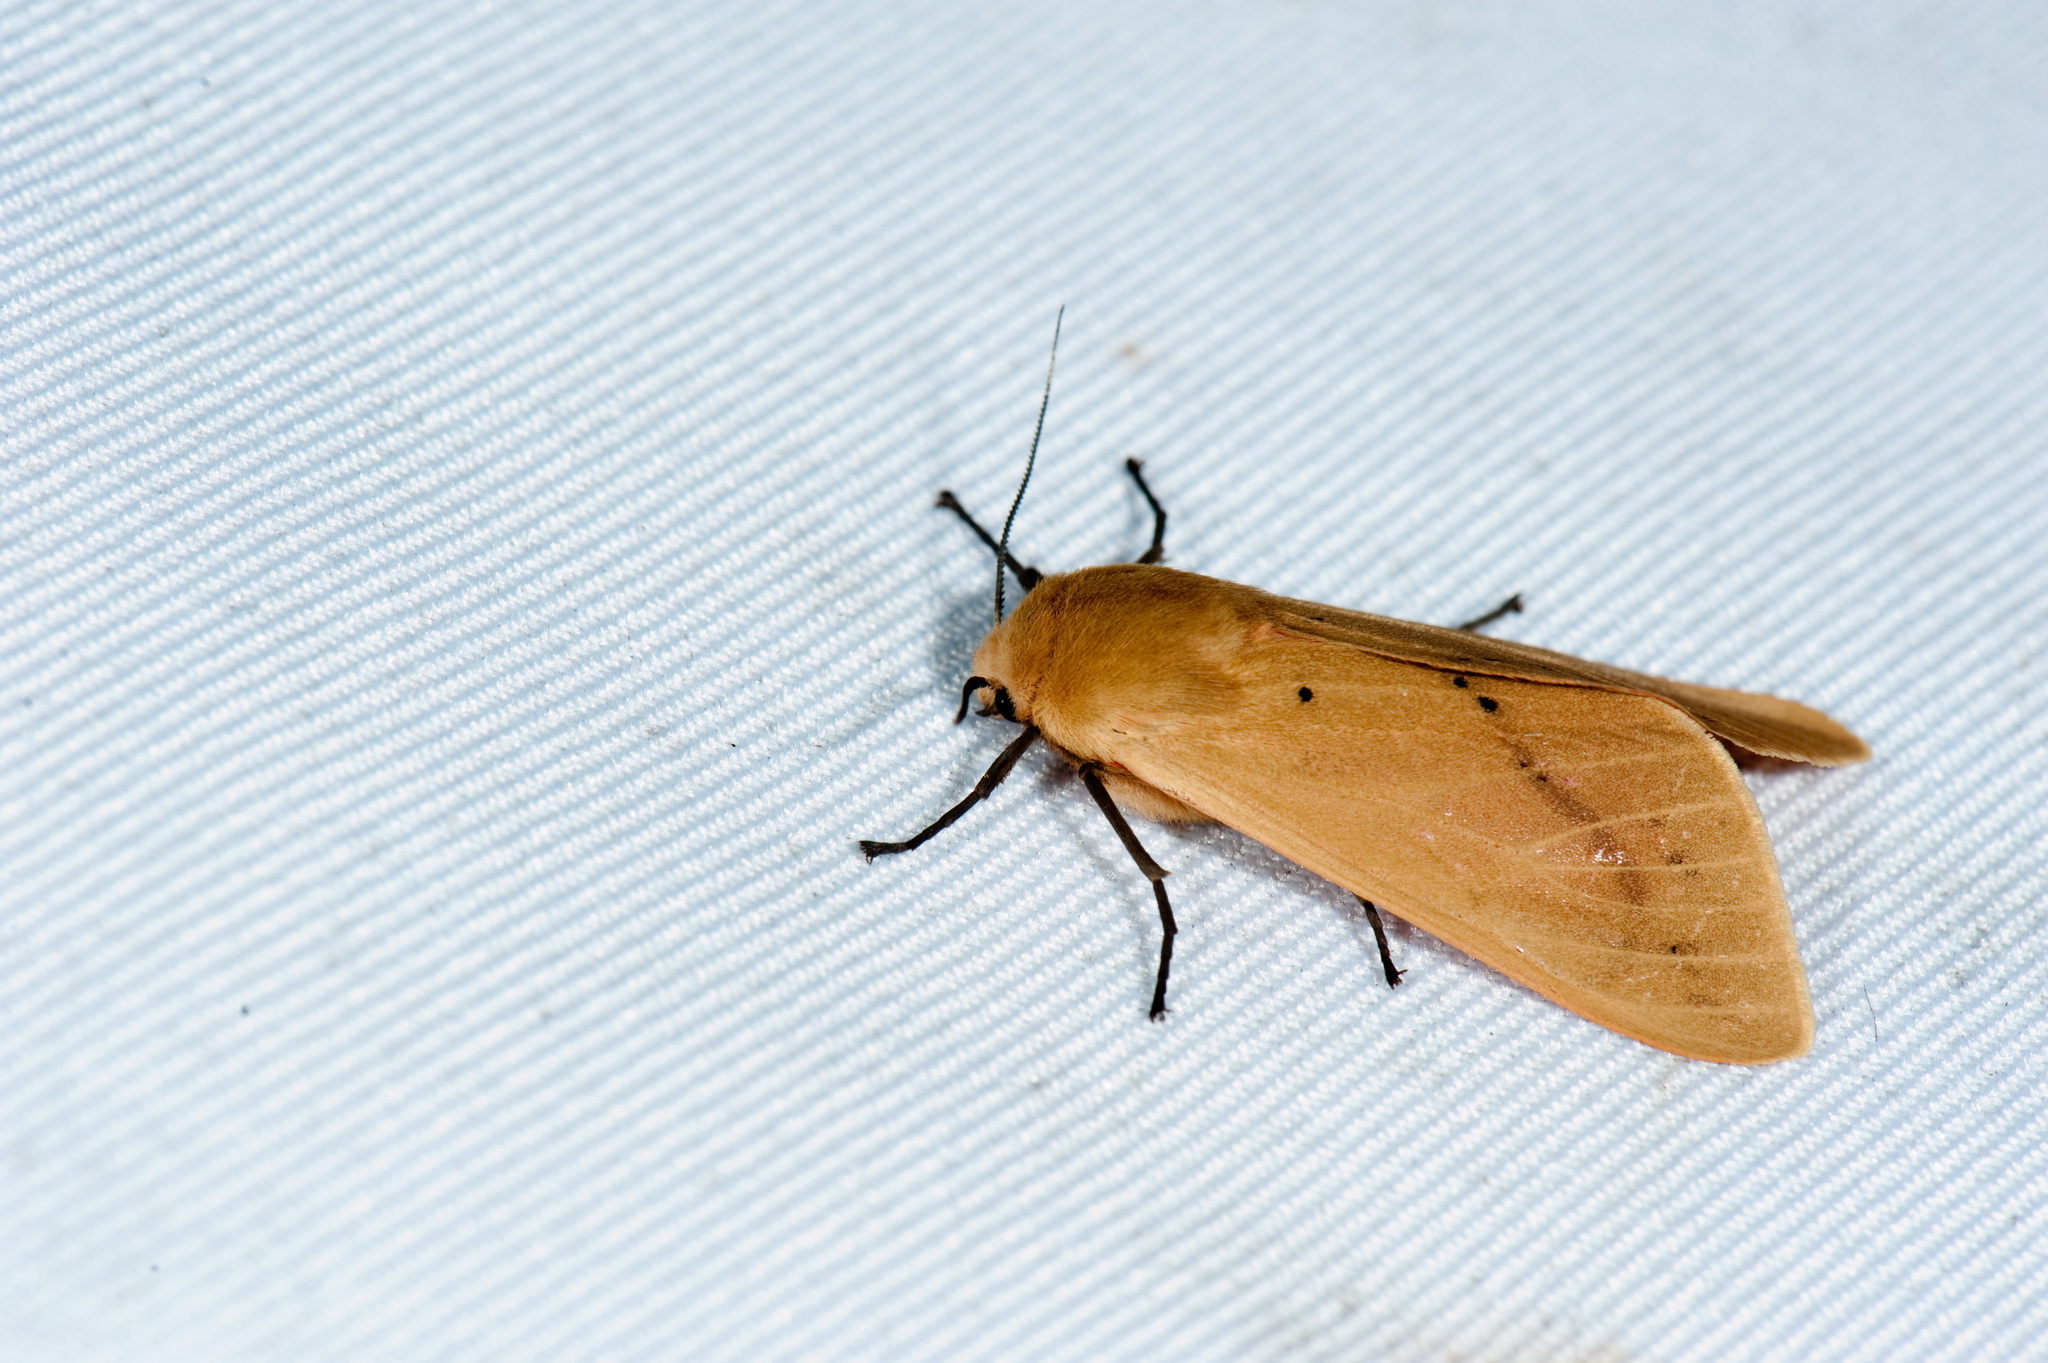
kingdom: Animalia
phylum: Arthropoda
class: Insecta
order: Lepidoptera
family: Erebidae
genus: Spilarctia
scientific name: Spilarctia wilemani
